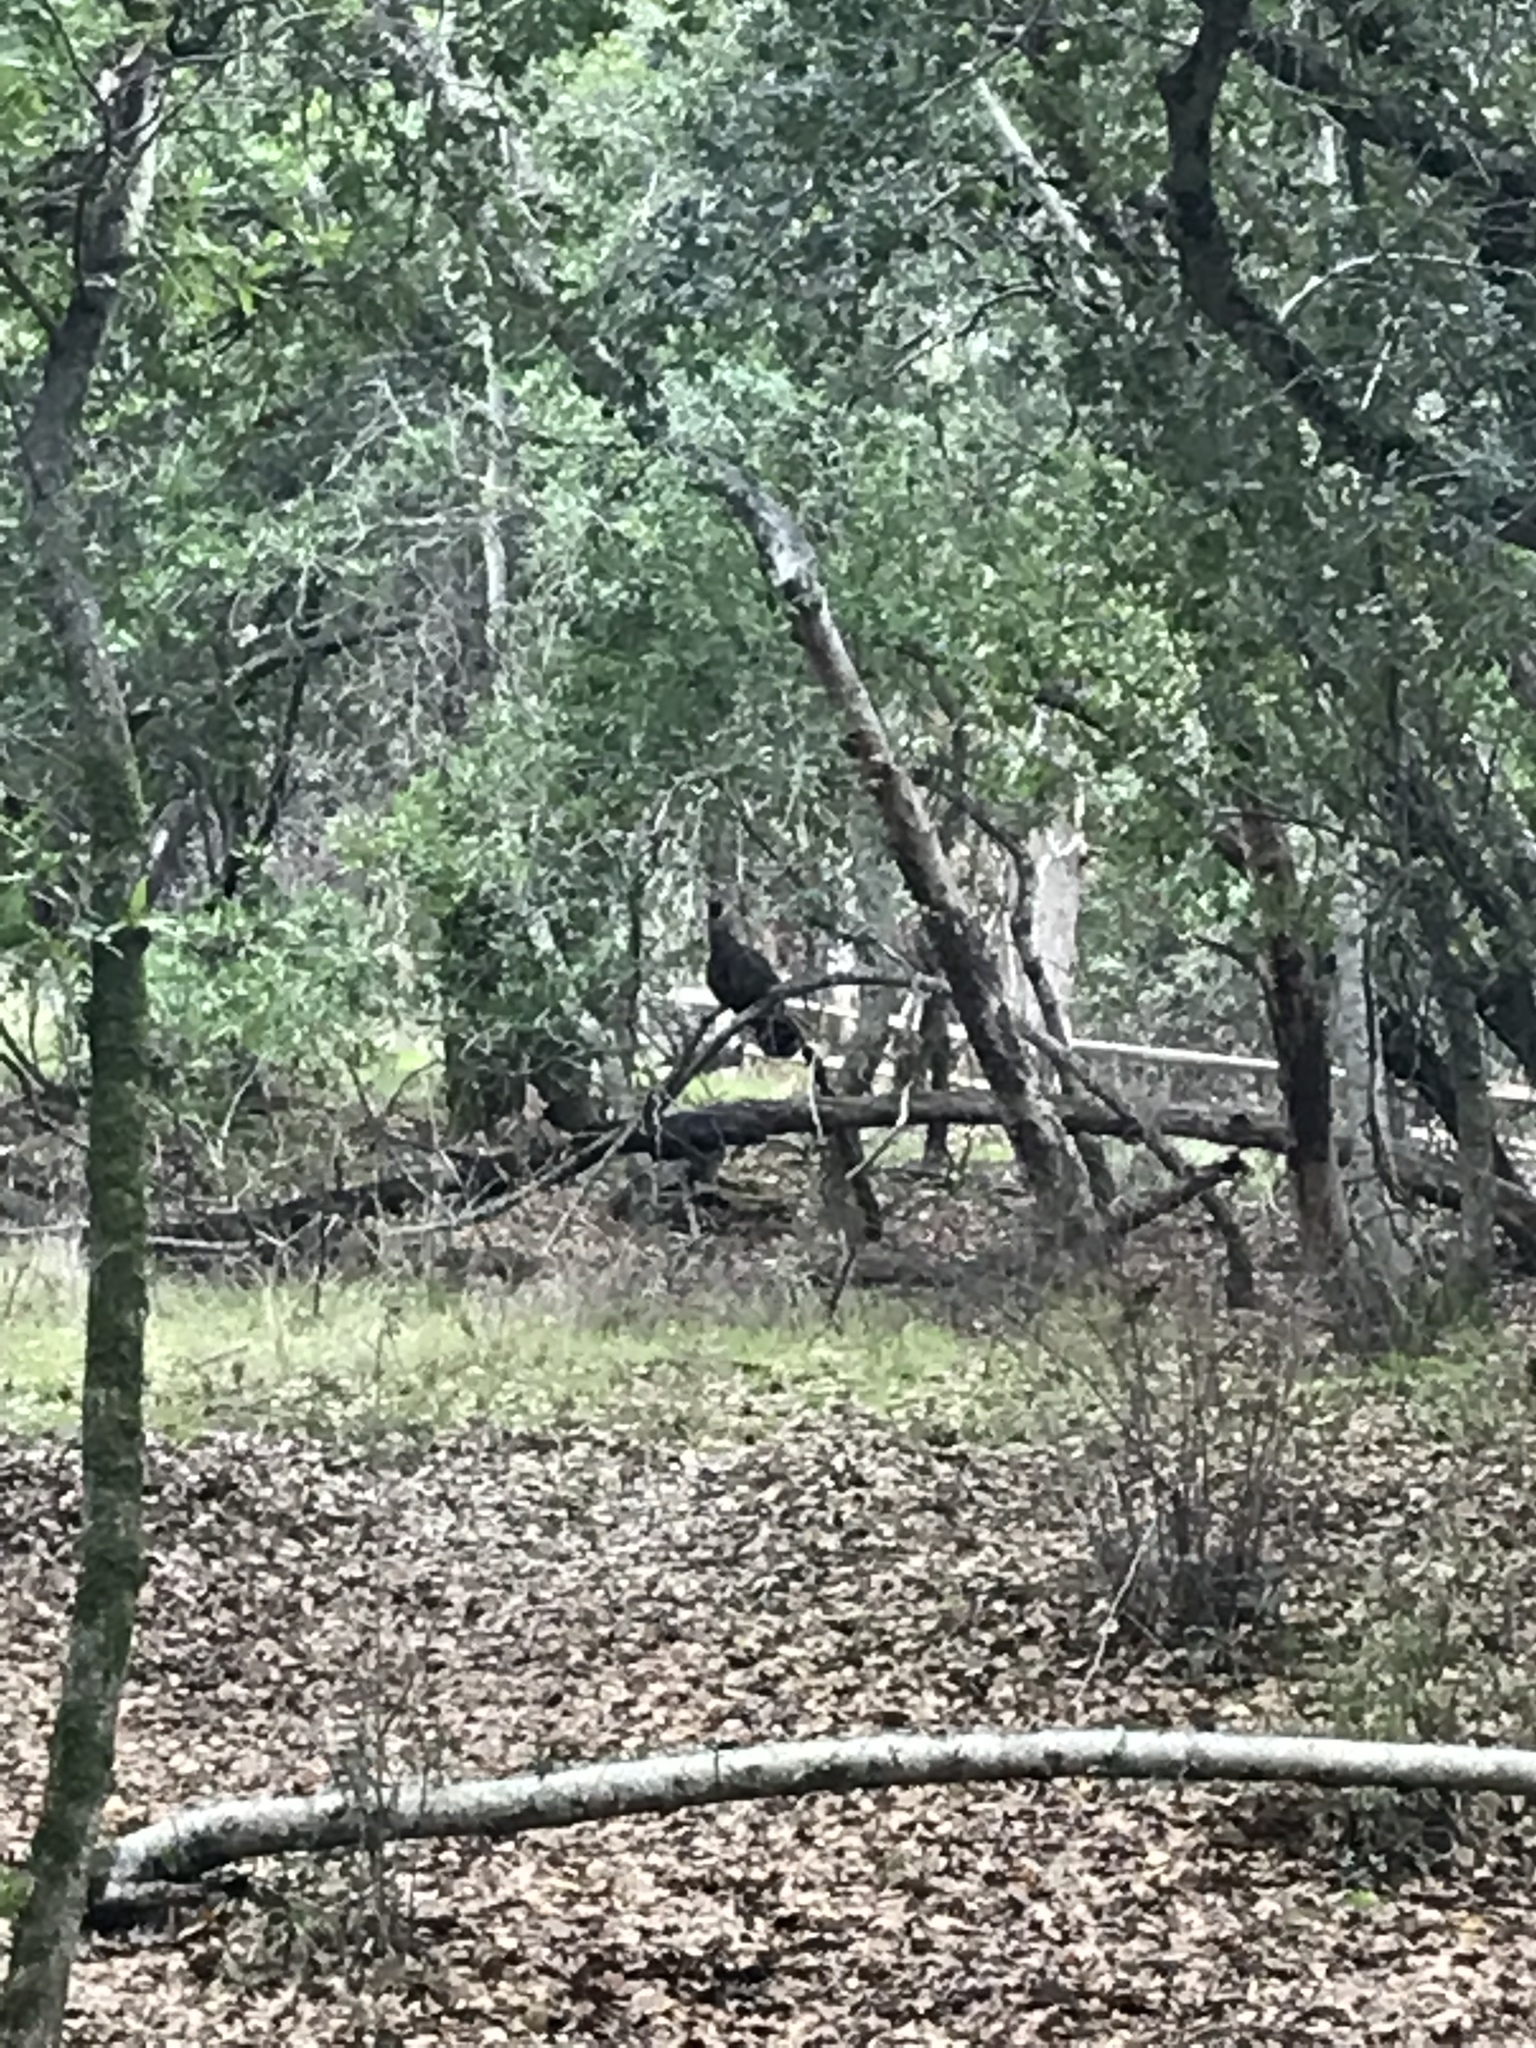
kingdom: Animalia
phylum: Chordata
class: Aves
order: Galliformes
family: Phasianidae
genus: Meleagris
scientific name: Meleagris gallopavo
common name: Wild turkey
